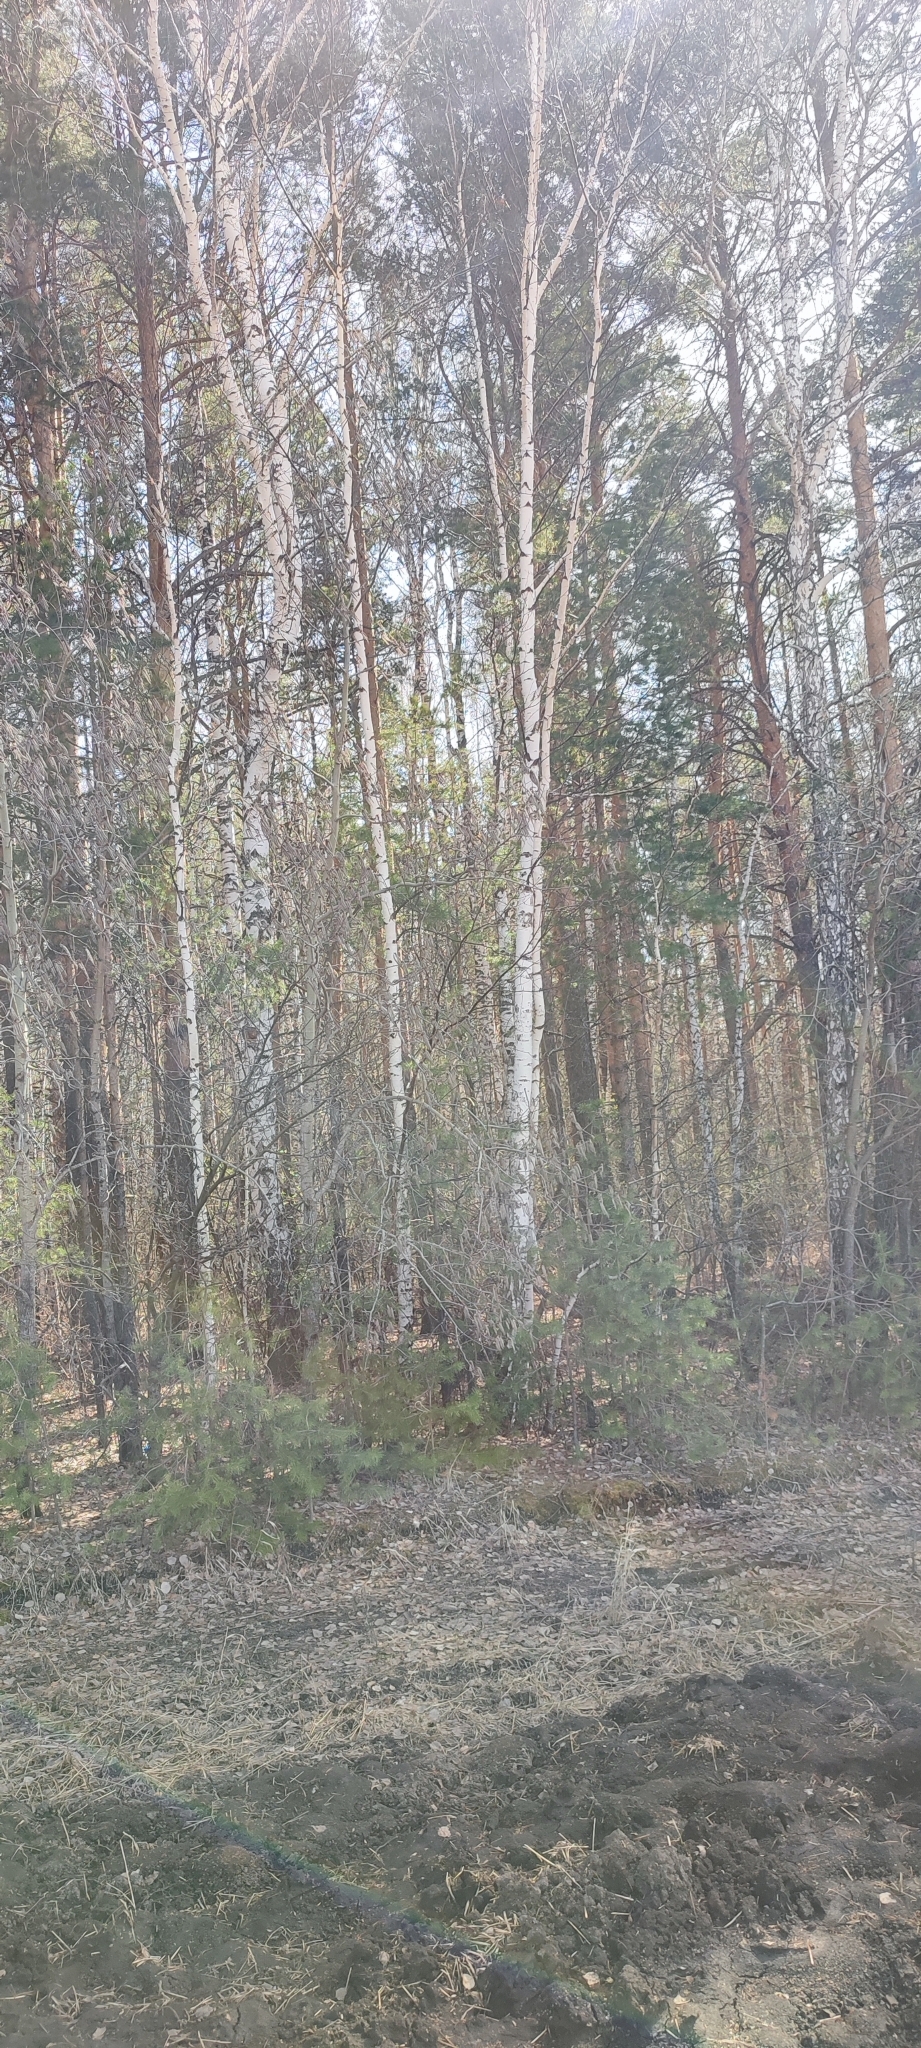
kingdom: Plantae
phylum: Tracheophyta
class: Magnoliopsida
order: Fagales
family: Betulaceae
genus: Betula
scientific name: Betula pendula
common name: Silver birch
